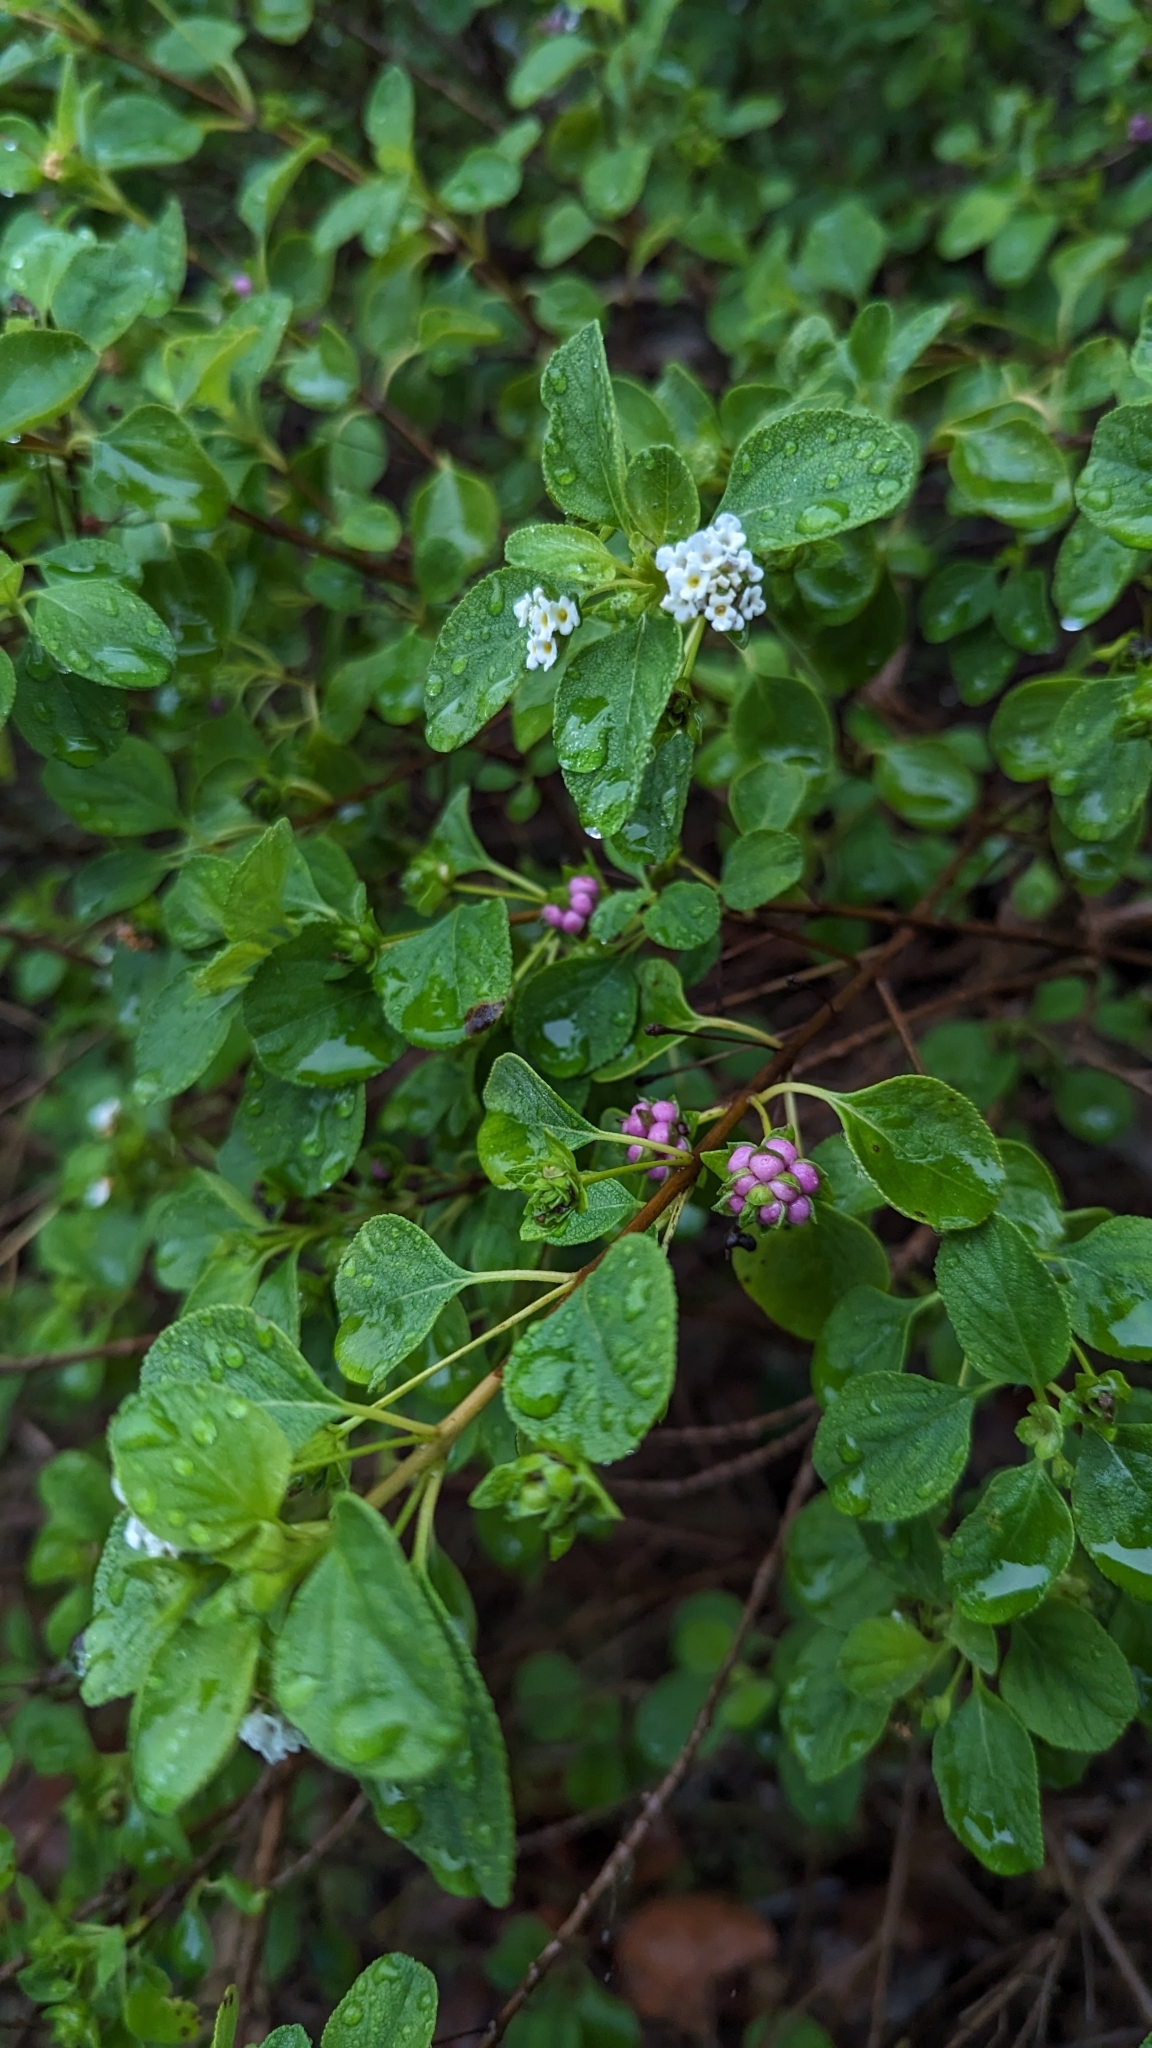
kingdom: Plantae
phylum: Tracheophyta
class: Magnoliopsida
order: Lamiales
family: Verbenaceae
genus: Lantana
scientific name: Lantana involucrata
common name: Black sage
